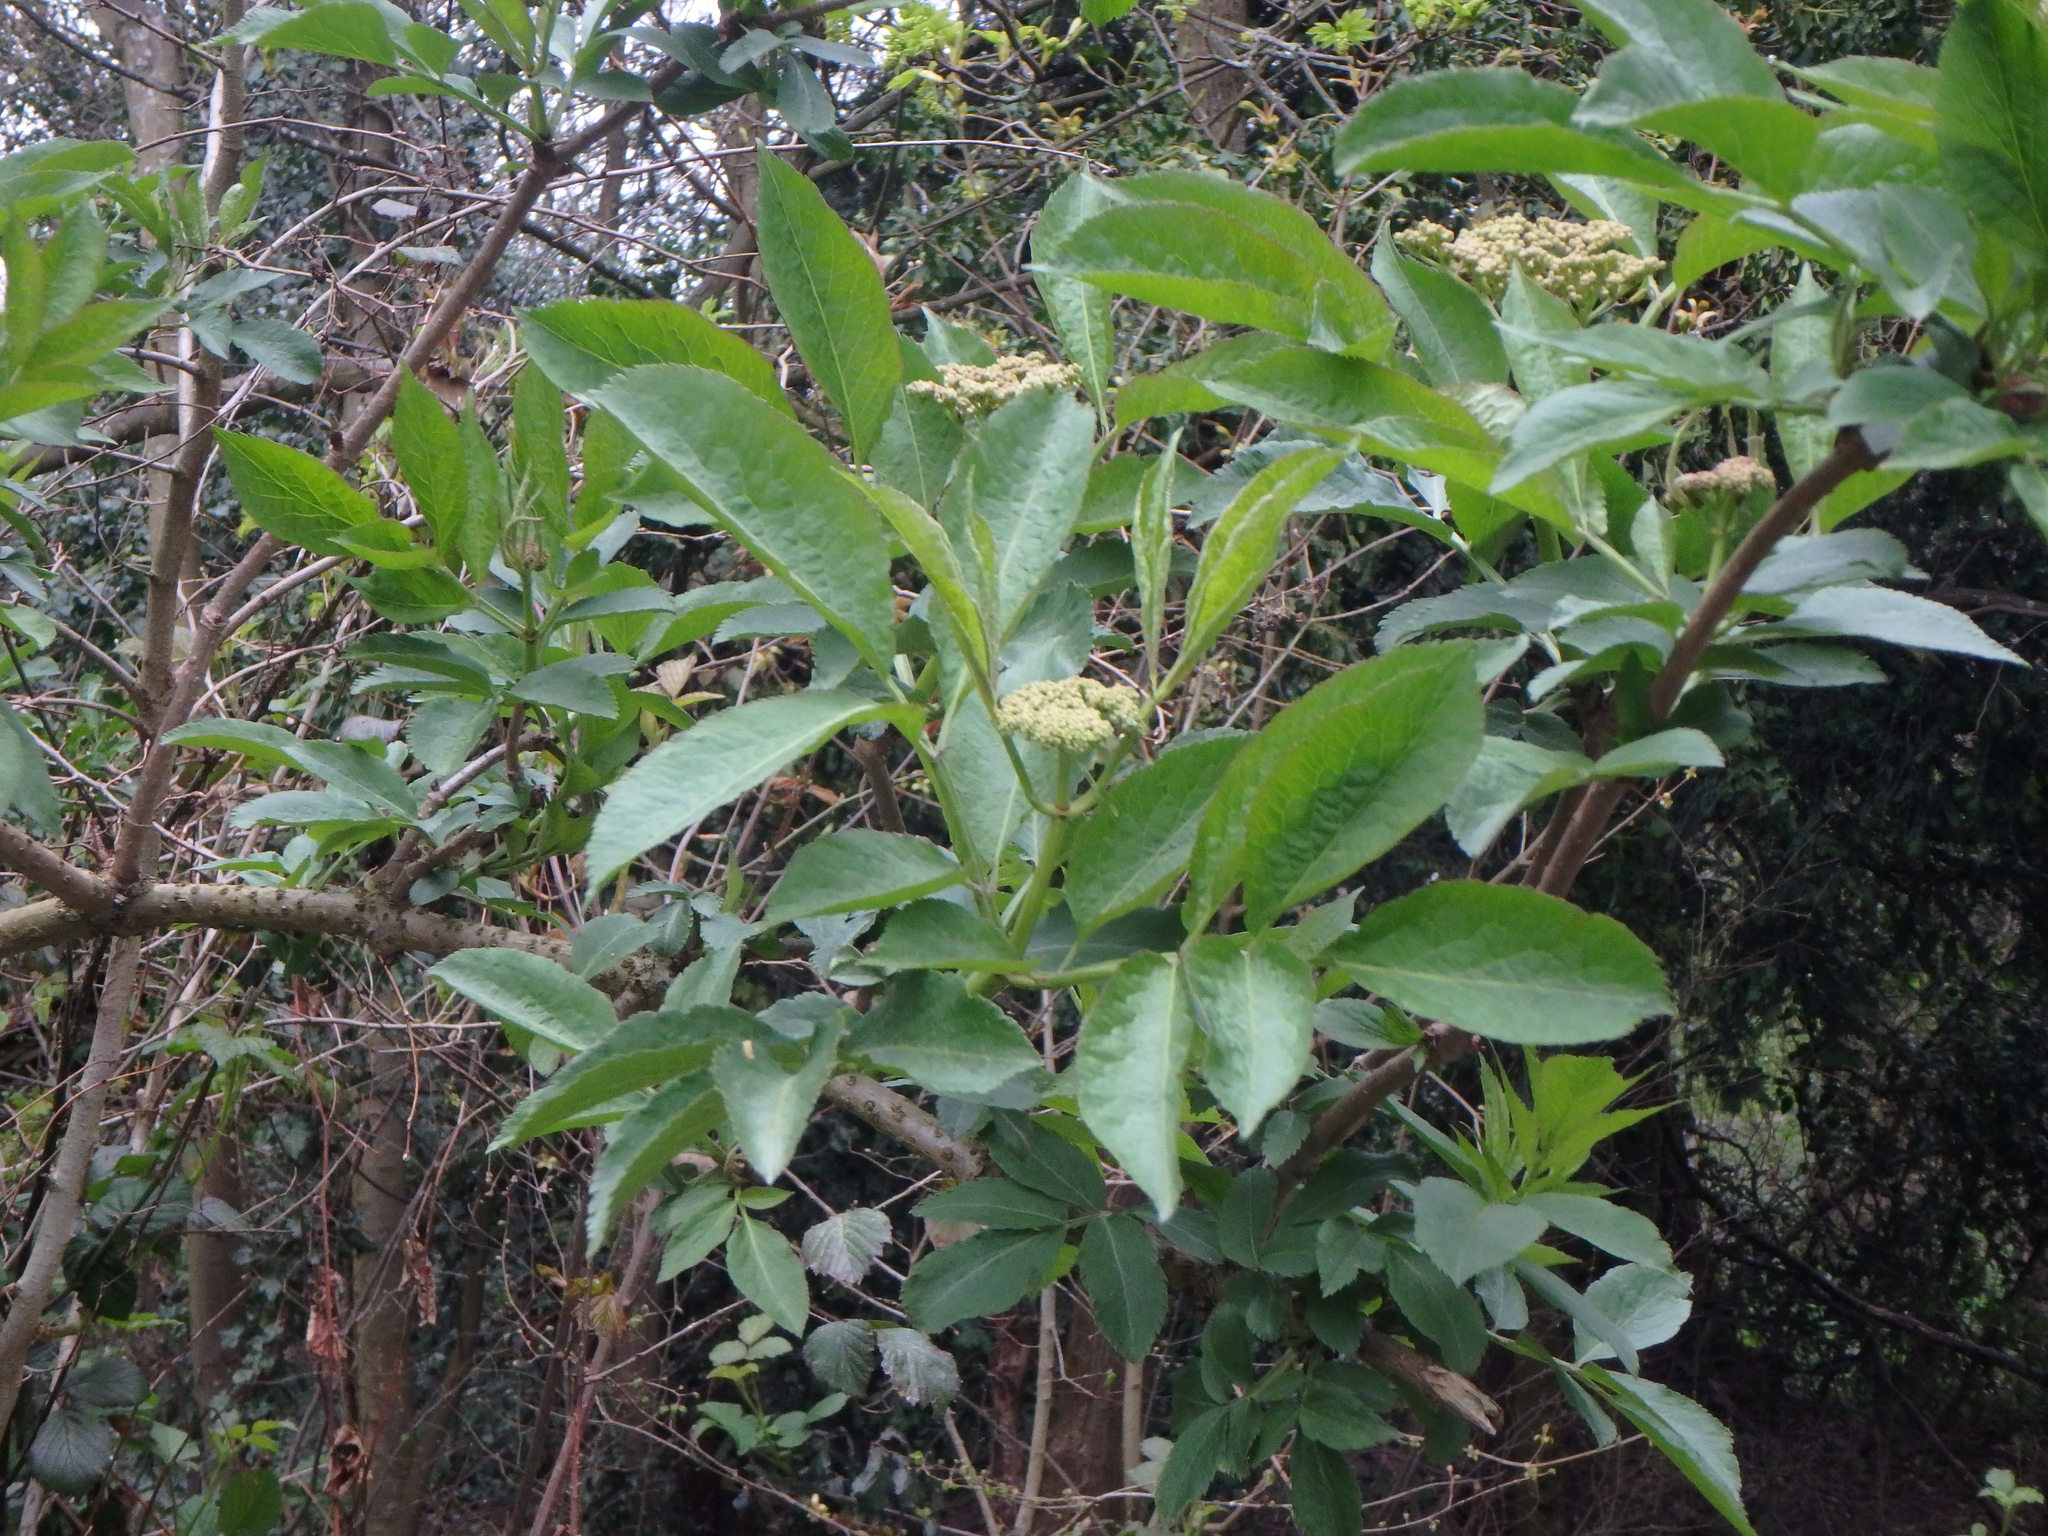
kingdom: Plantae
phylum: Tracheophyta
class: Magnoliopsida
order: Dipsacales
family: Viburnaceae
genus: Sambucus
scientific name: Sambucus nigra
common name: Elder
